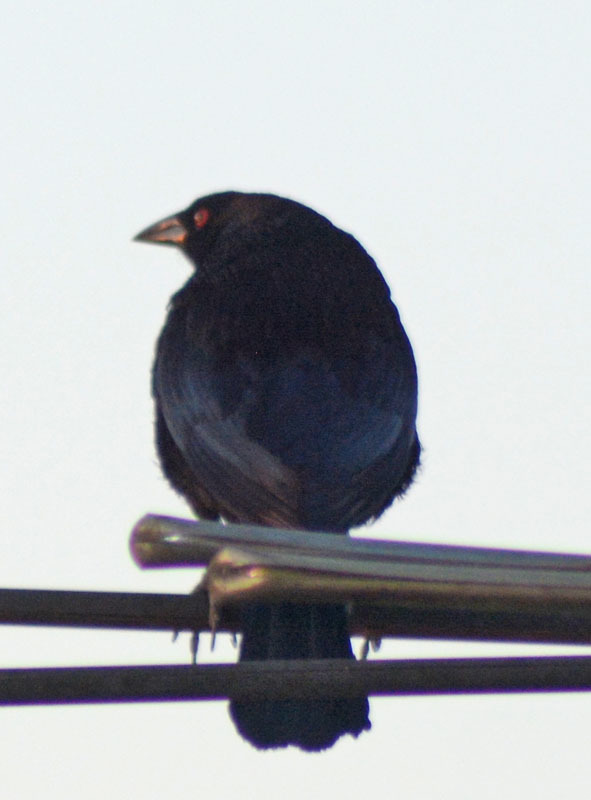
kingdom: Animalia
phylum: Chordata
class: Aves
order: Passeriformes
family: Icteridae
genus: Molothrus
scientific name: Molothrus aeneus
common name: Bronzed cowbird
